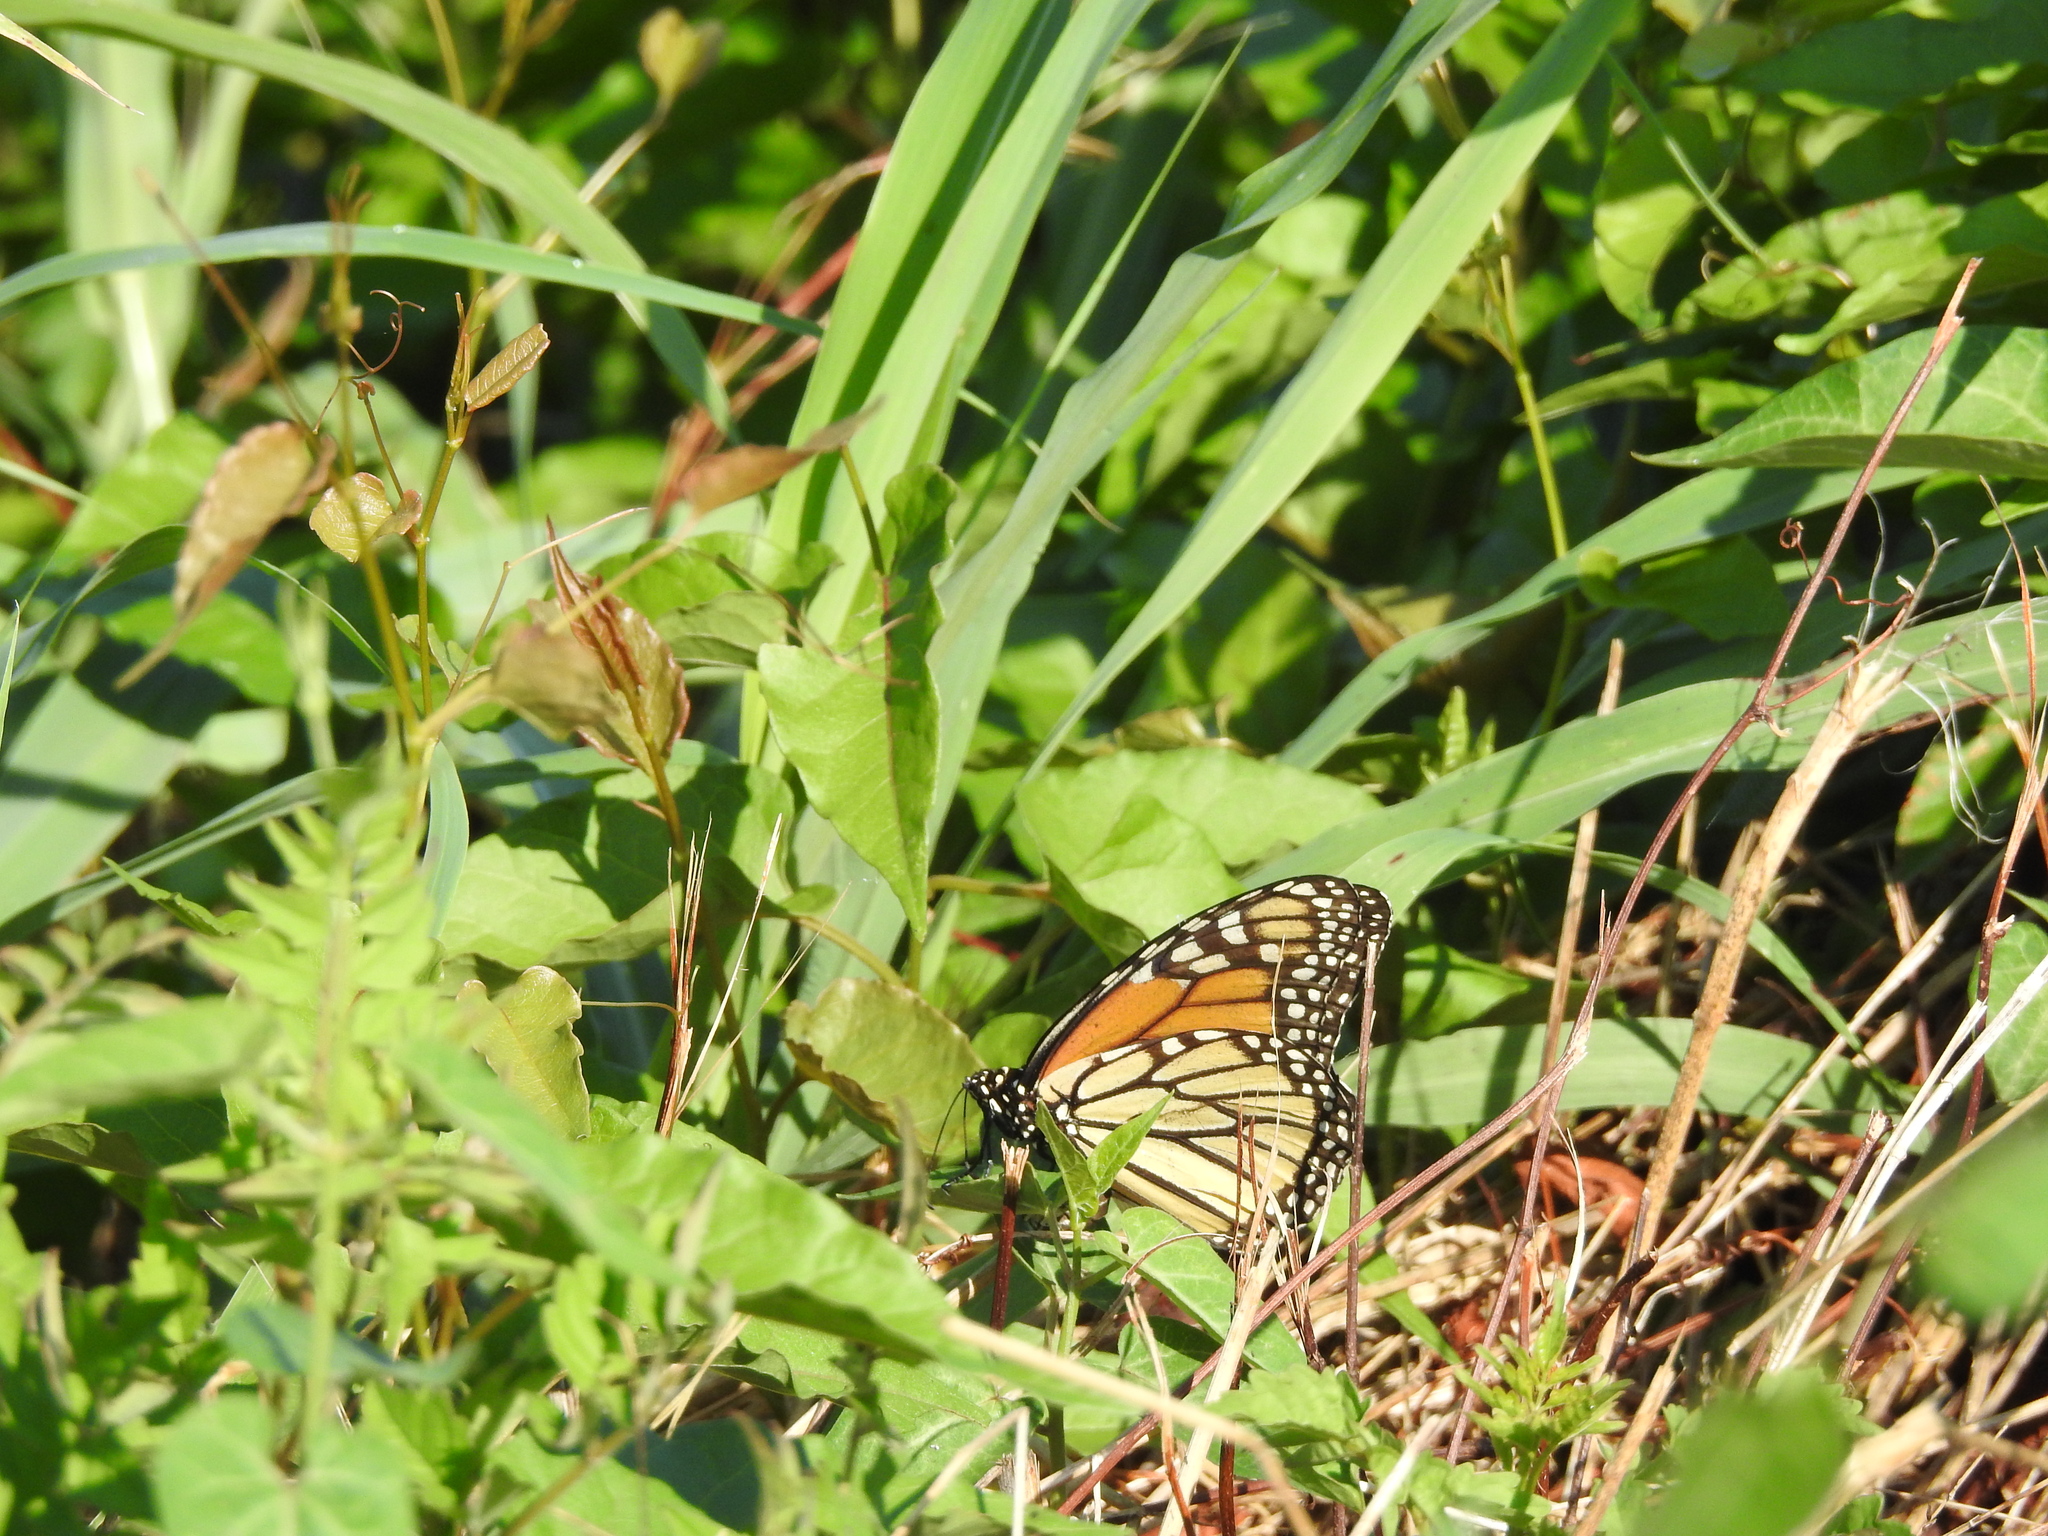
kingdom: Animalia
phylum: Arthropoda
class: Insecta
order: Lepidoptera
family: Nymphalidae
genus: Danaus
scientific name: Danaus plexippus
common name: Monarch
